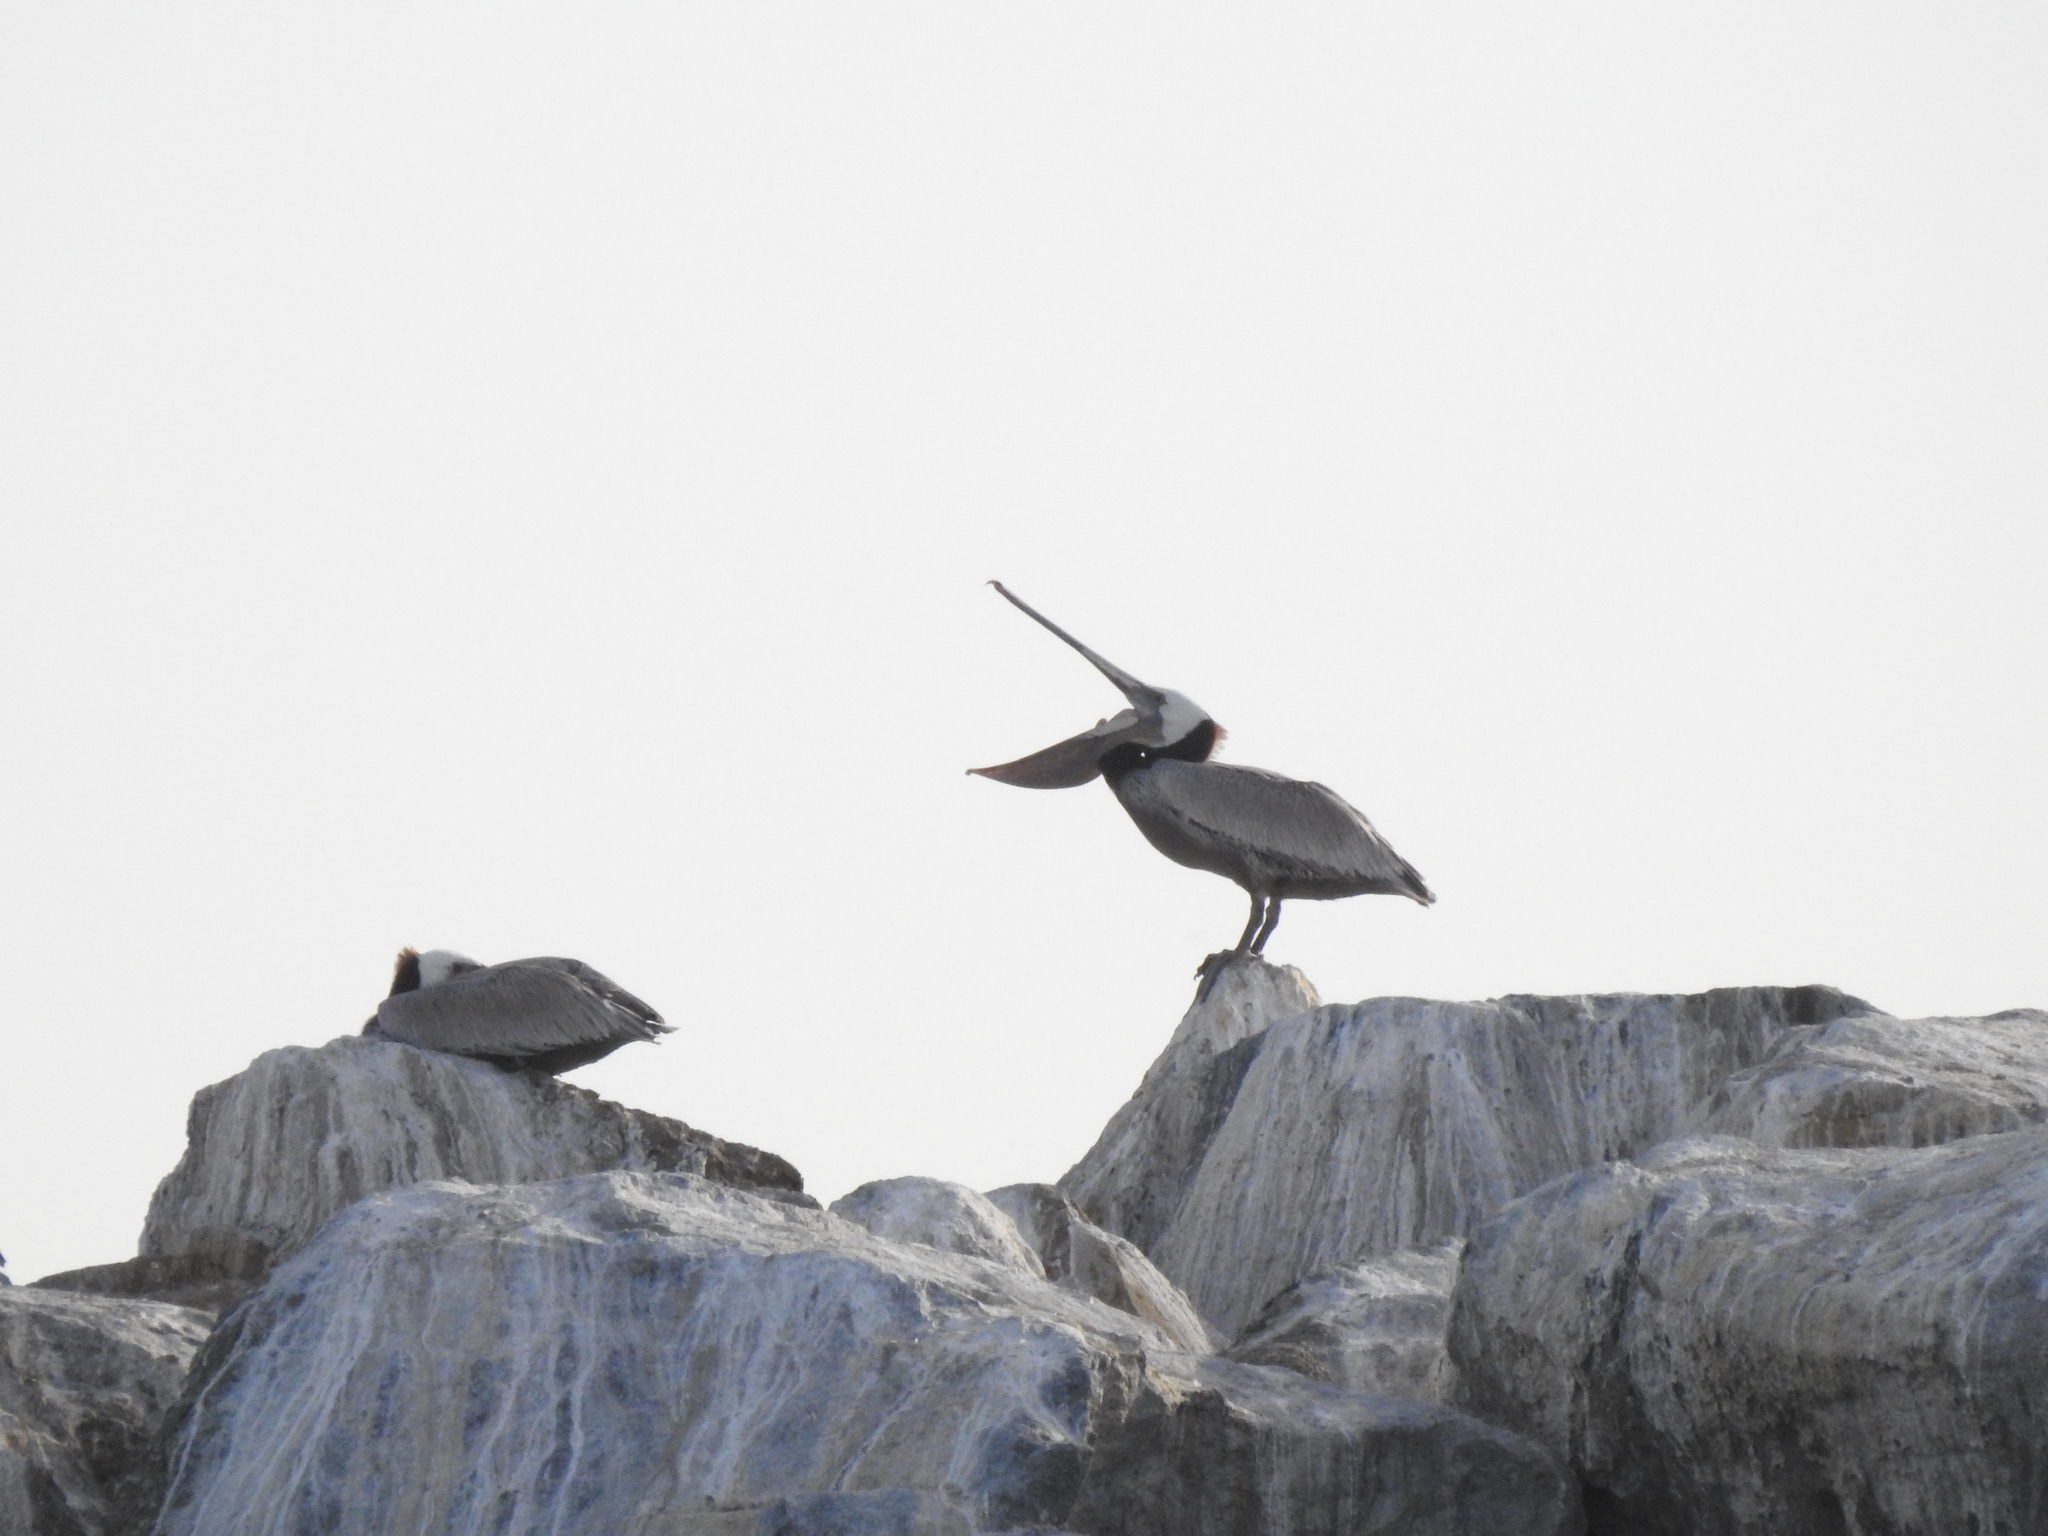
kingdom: Animalia
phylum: Chordata
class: Aves
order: Pelecaniformes
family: Pelecanidae
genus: Pelecanus
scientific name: Pelecanus occidentalis
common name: Brown pelican
